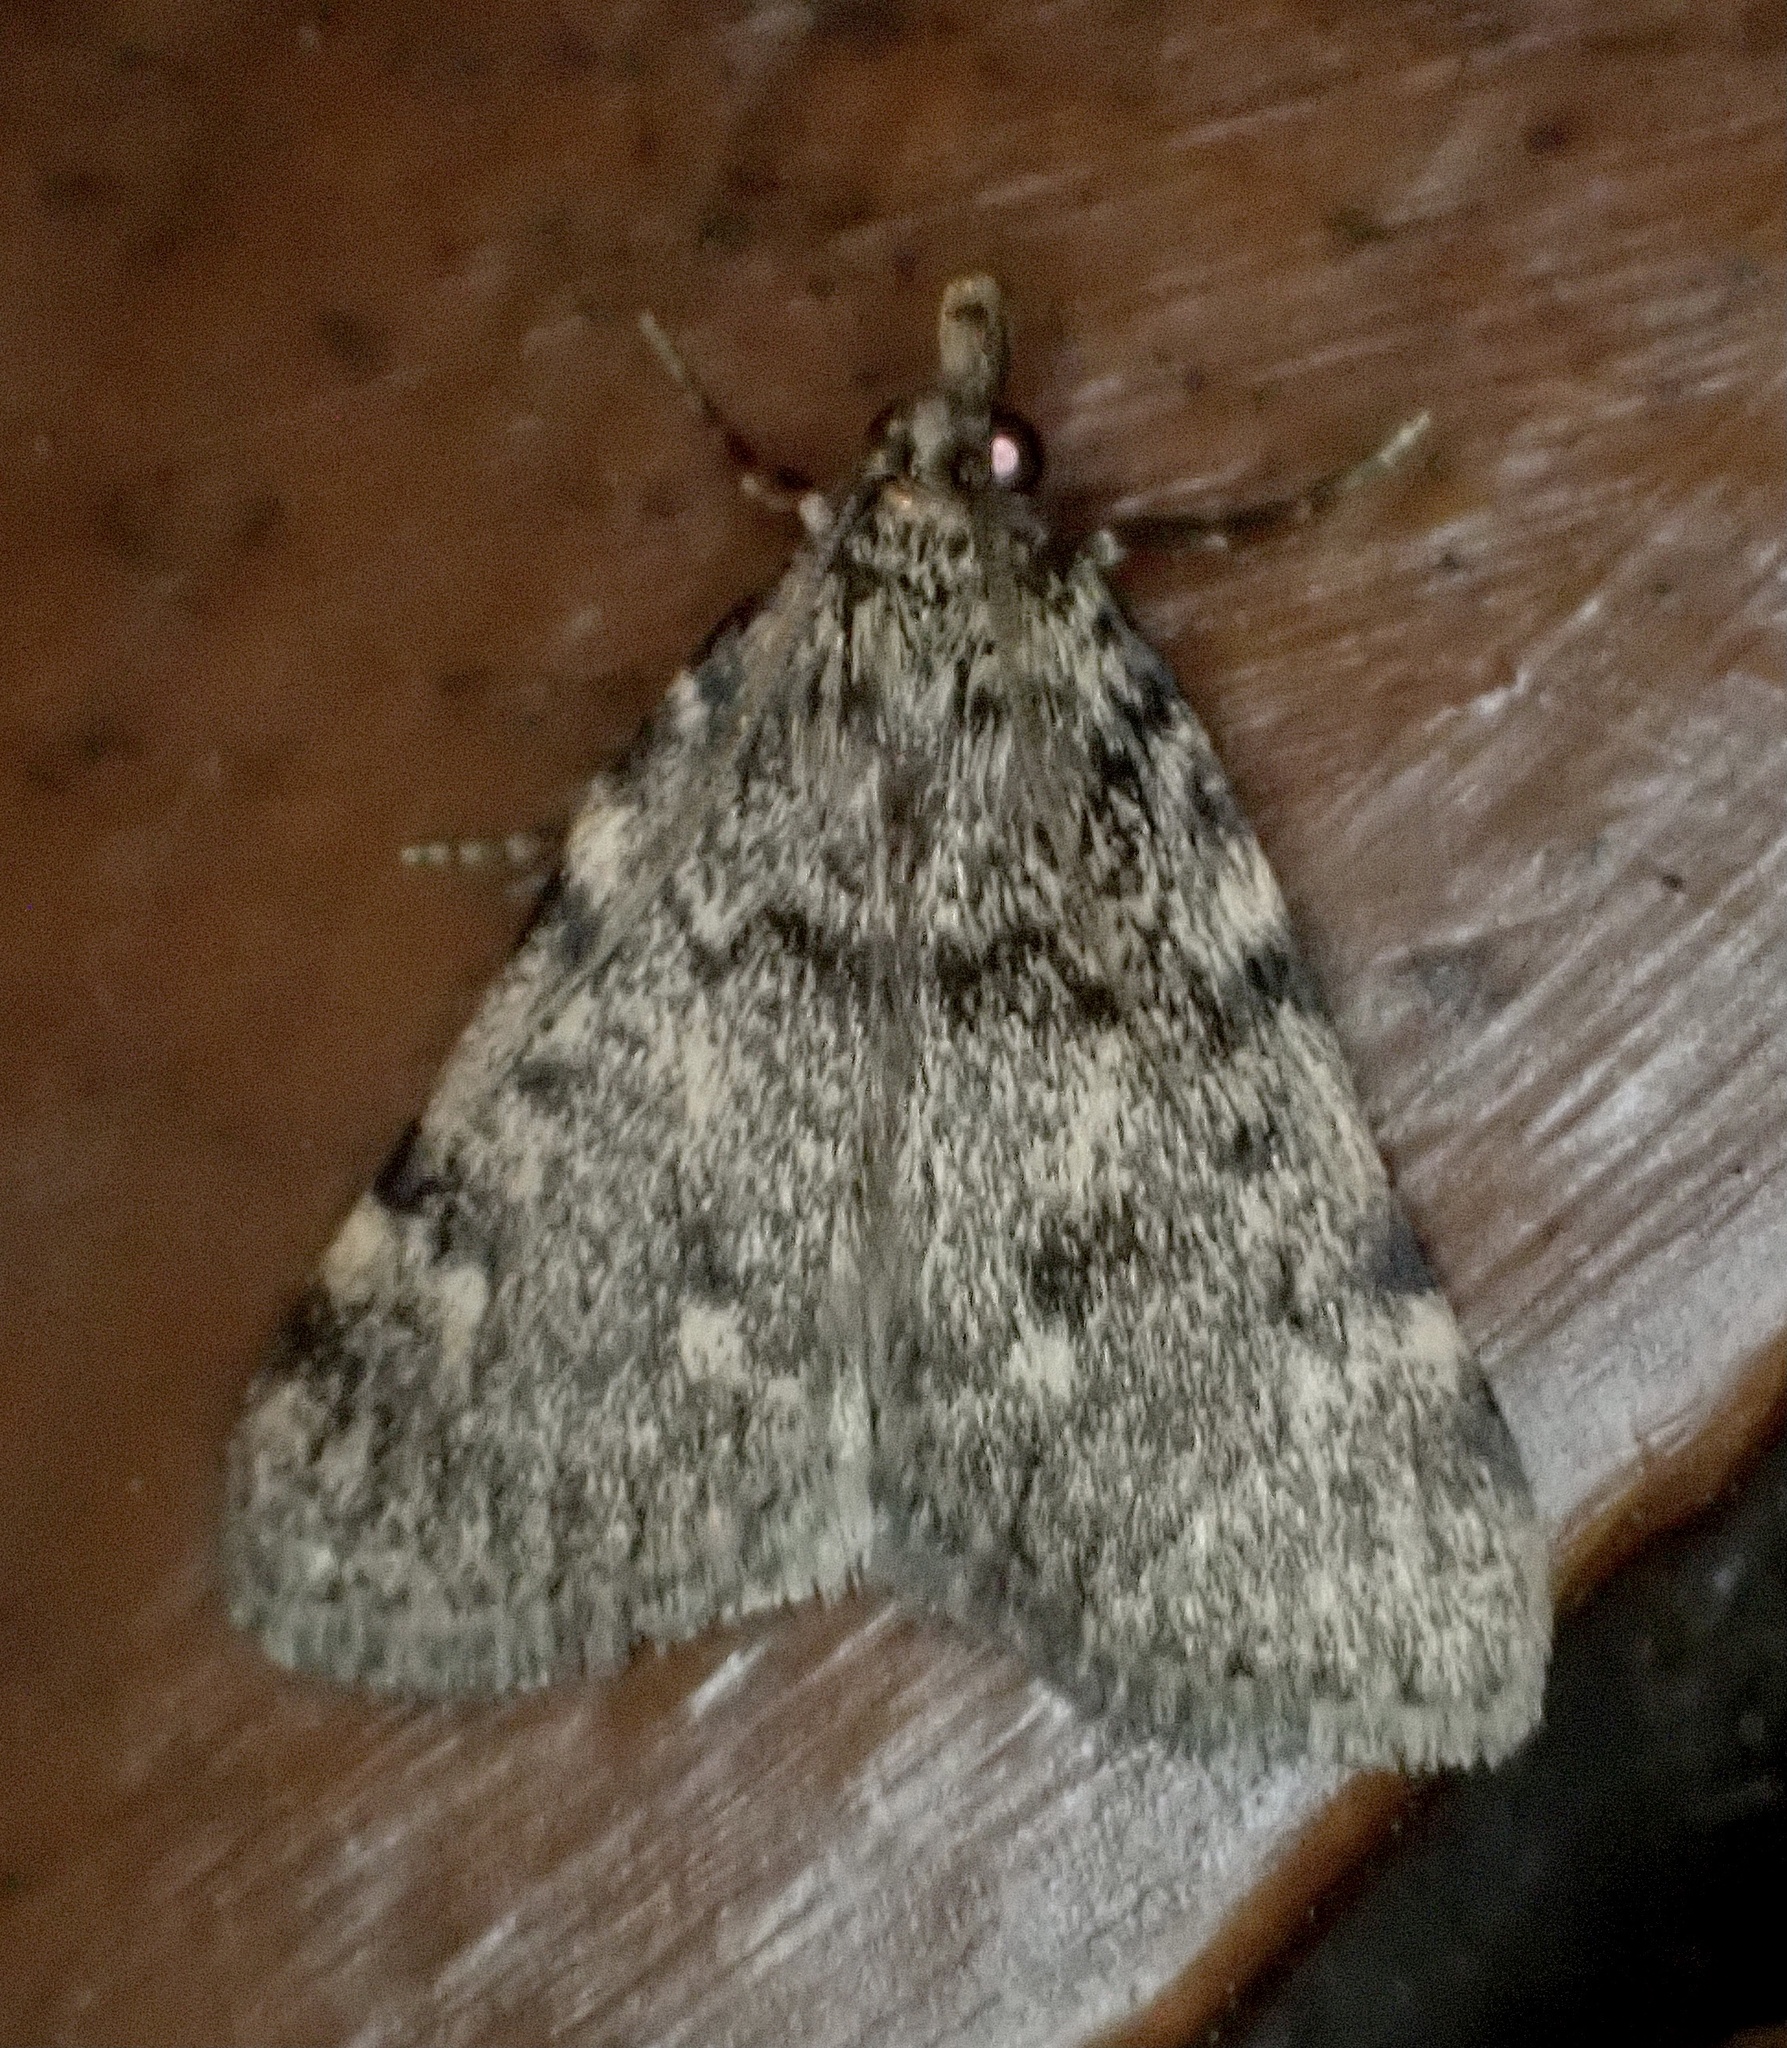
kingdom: Animalia
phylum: Arthropoda
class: Insecta
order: Lepidoptera
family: Pyralidae
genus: Aglossa
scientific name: Aglossa pinguinalis
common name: Large tabby
